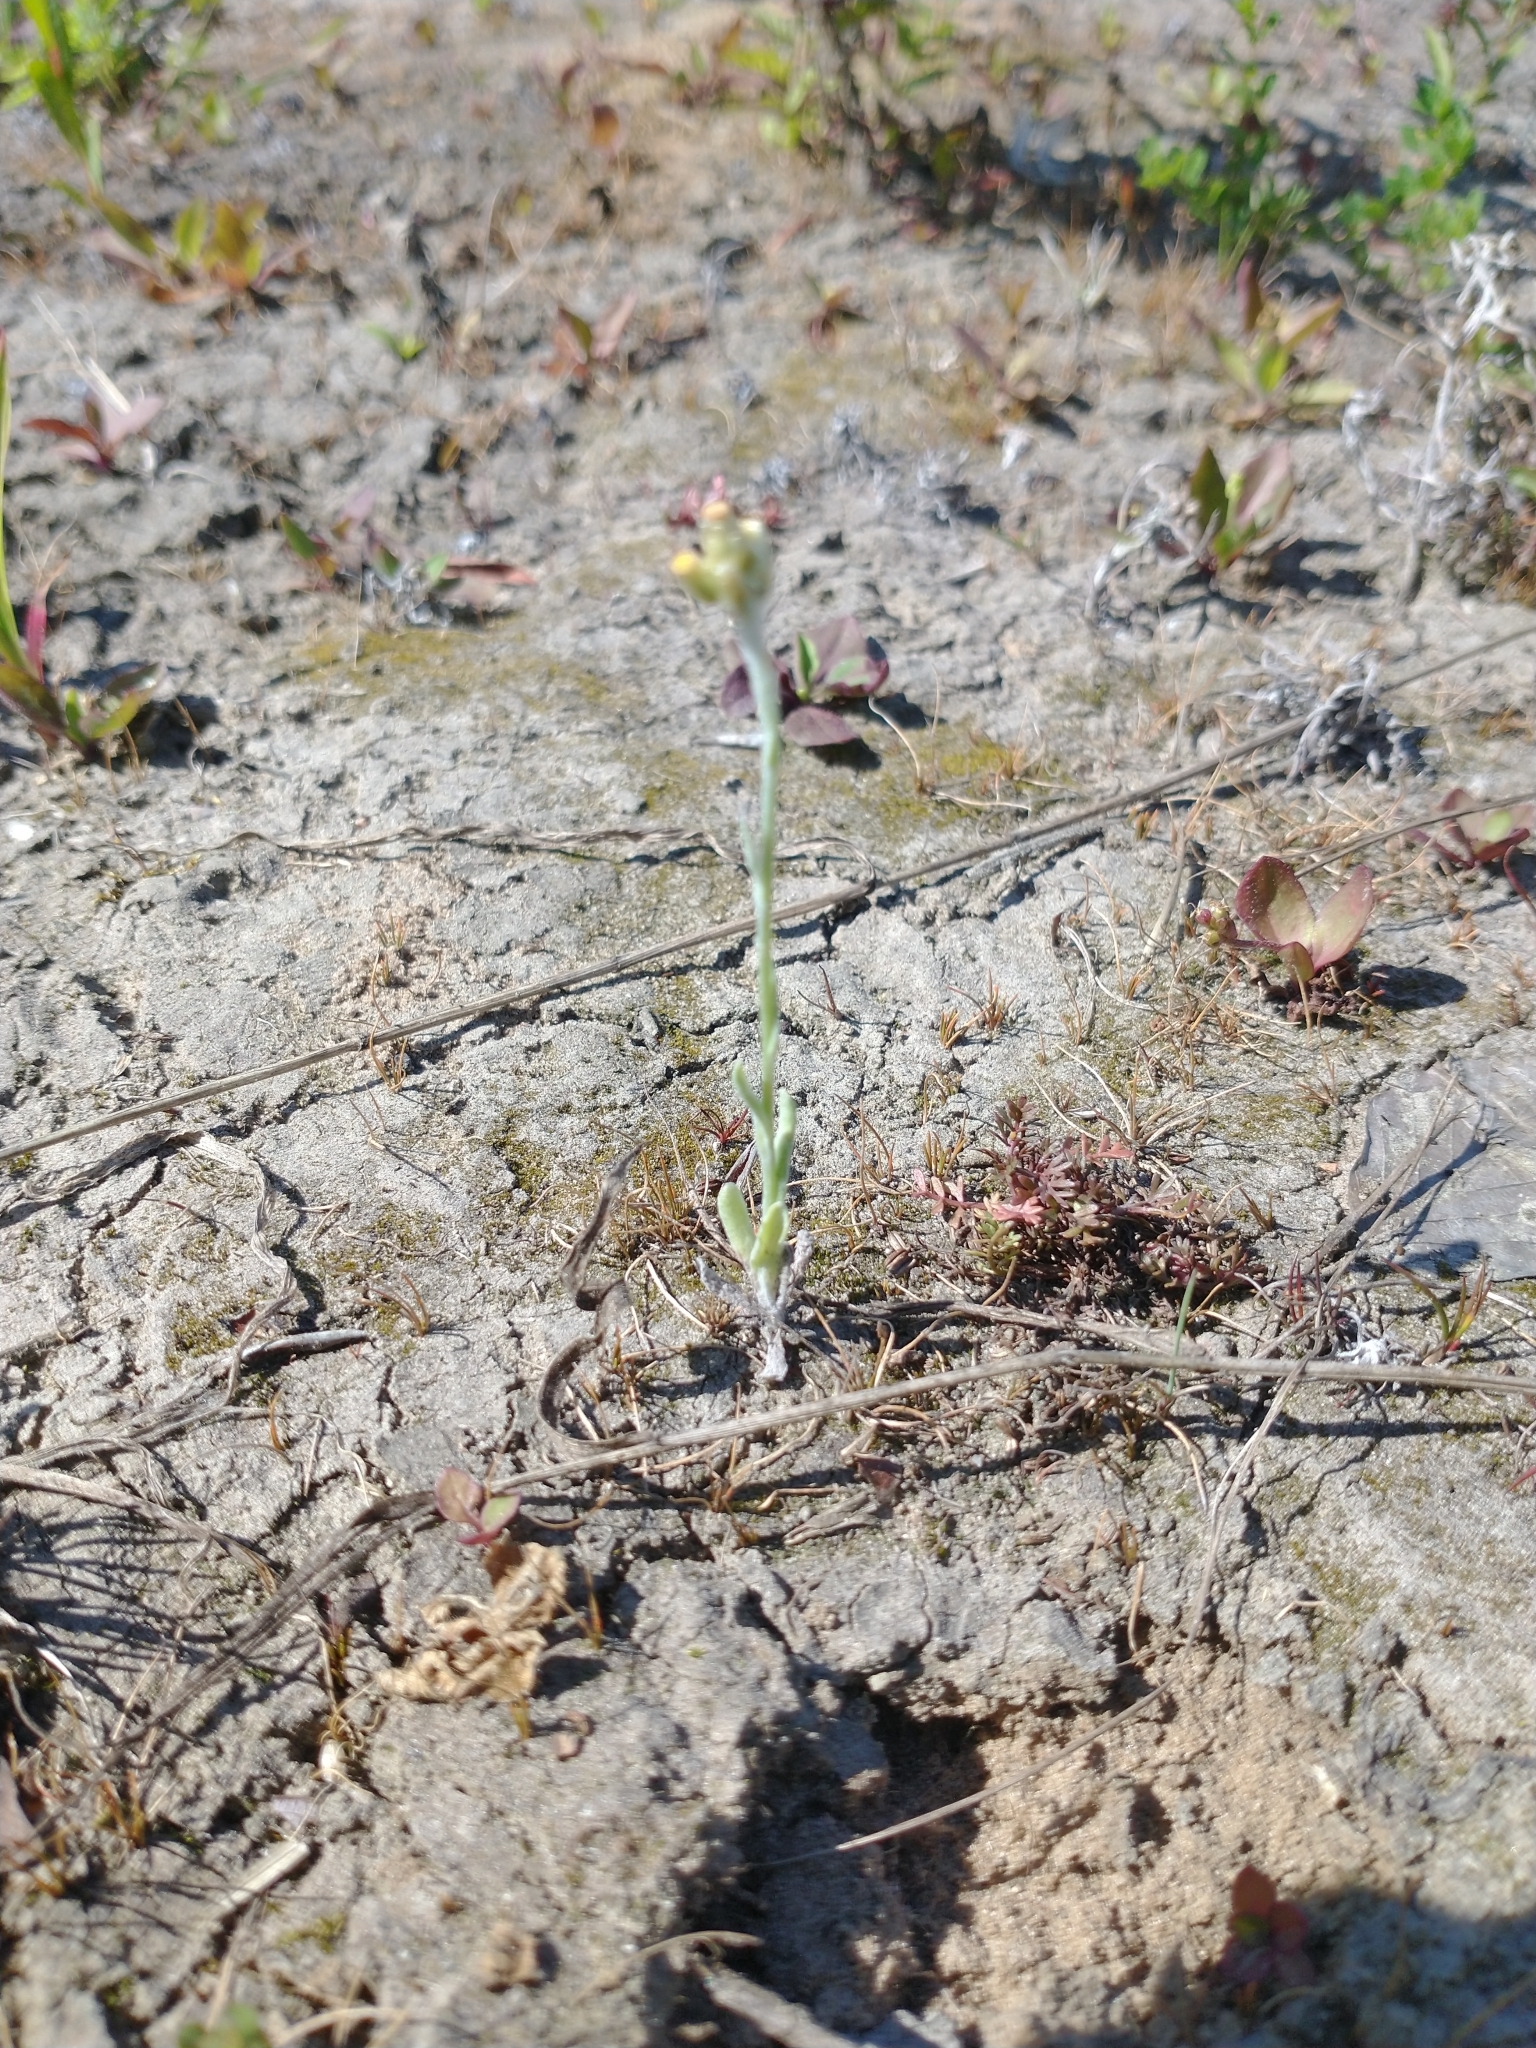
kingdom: Plantae
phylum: Tracheophyta
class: Magnoliopsida
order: Asterales
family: Asteraceae
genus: Helichrysum
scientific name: Helichrysum luteoalbum
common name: Daisy
